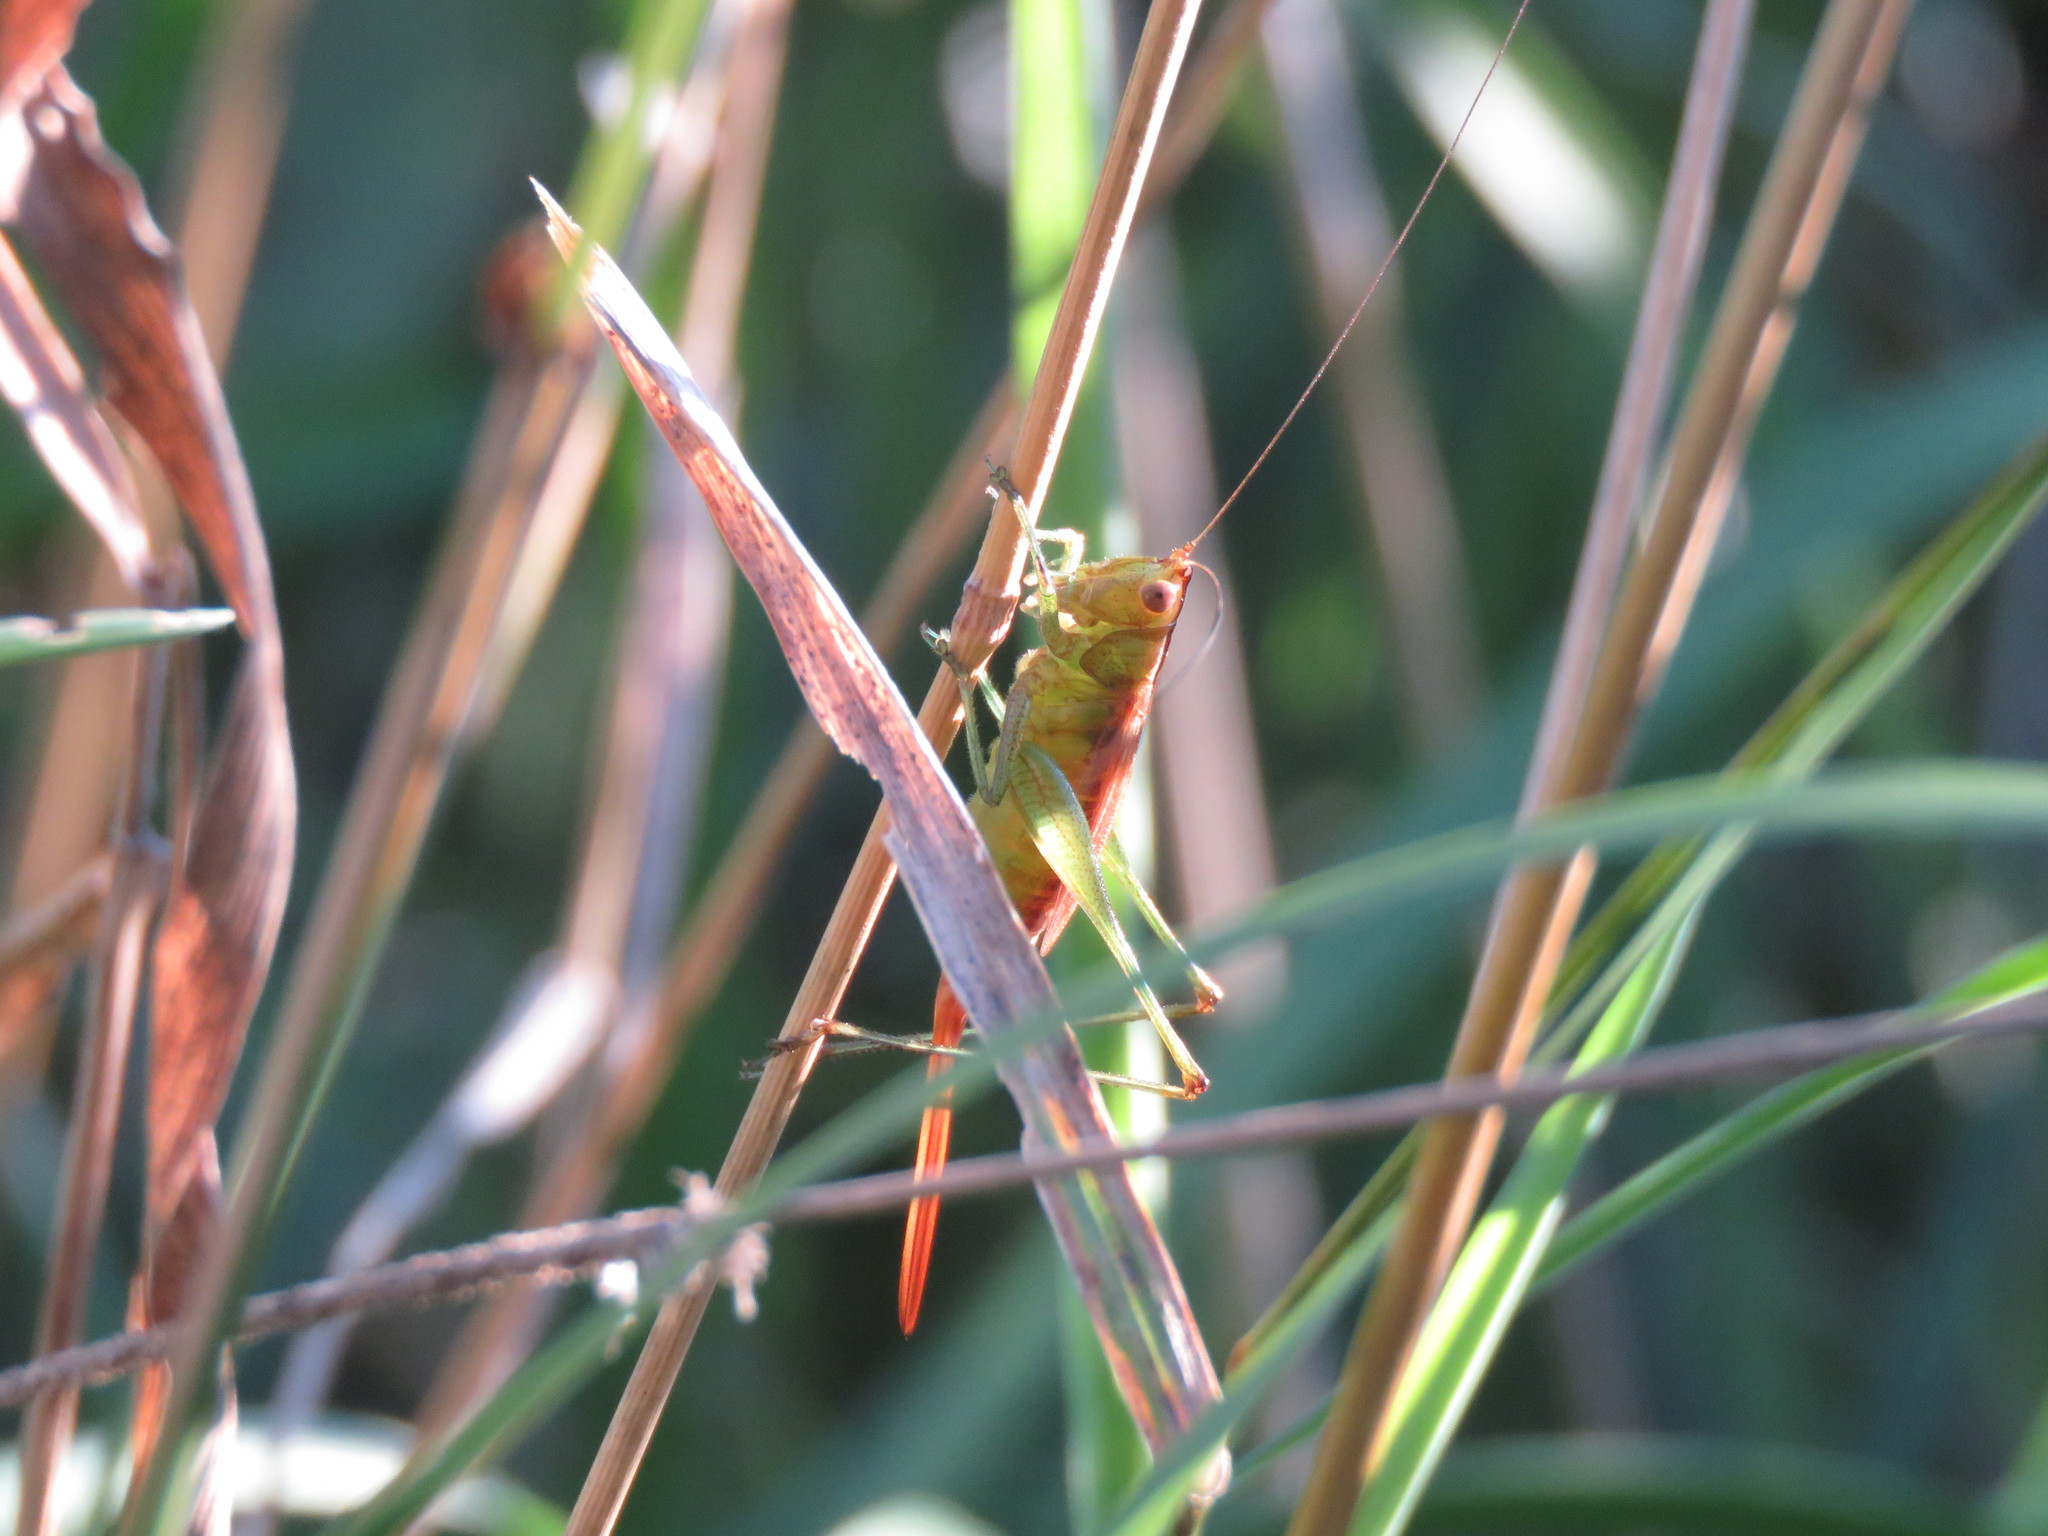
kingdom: Animalia
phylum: Arthropoda
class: Insecta
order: Orthoptera
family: Tettigoniidae
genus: Conocephalus
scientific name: Conocephalus brevipennis
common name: Short-winged meadow katydid
